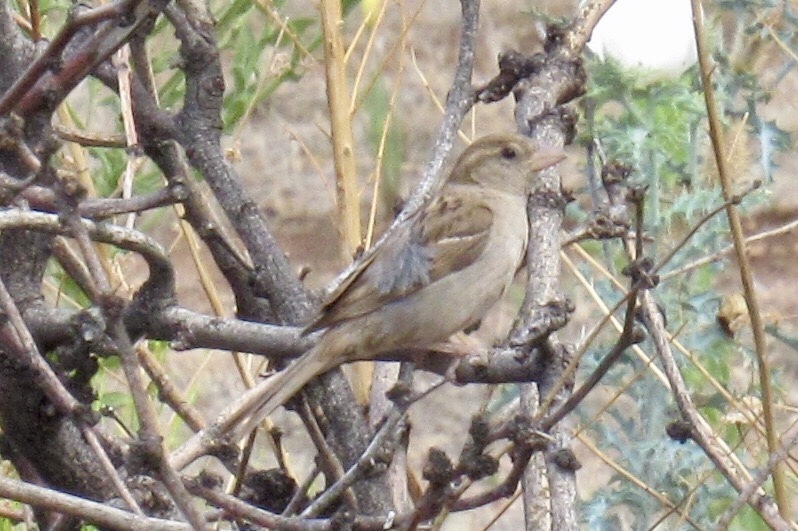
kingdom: Animalia
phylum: Chordata
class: Aves
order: Passeriformes
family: Passeridae
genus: Passer
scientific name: Passer domesticus
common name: House sparrow
